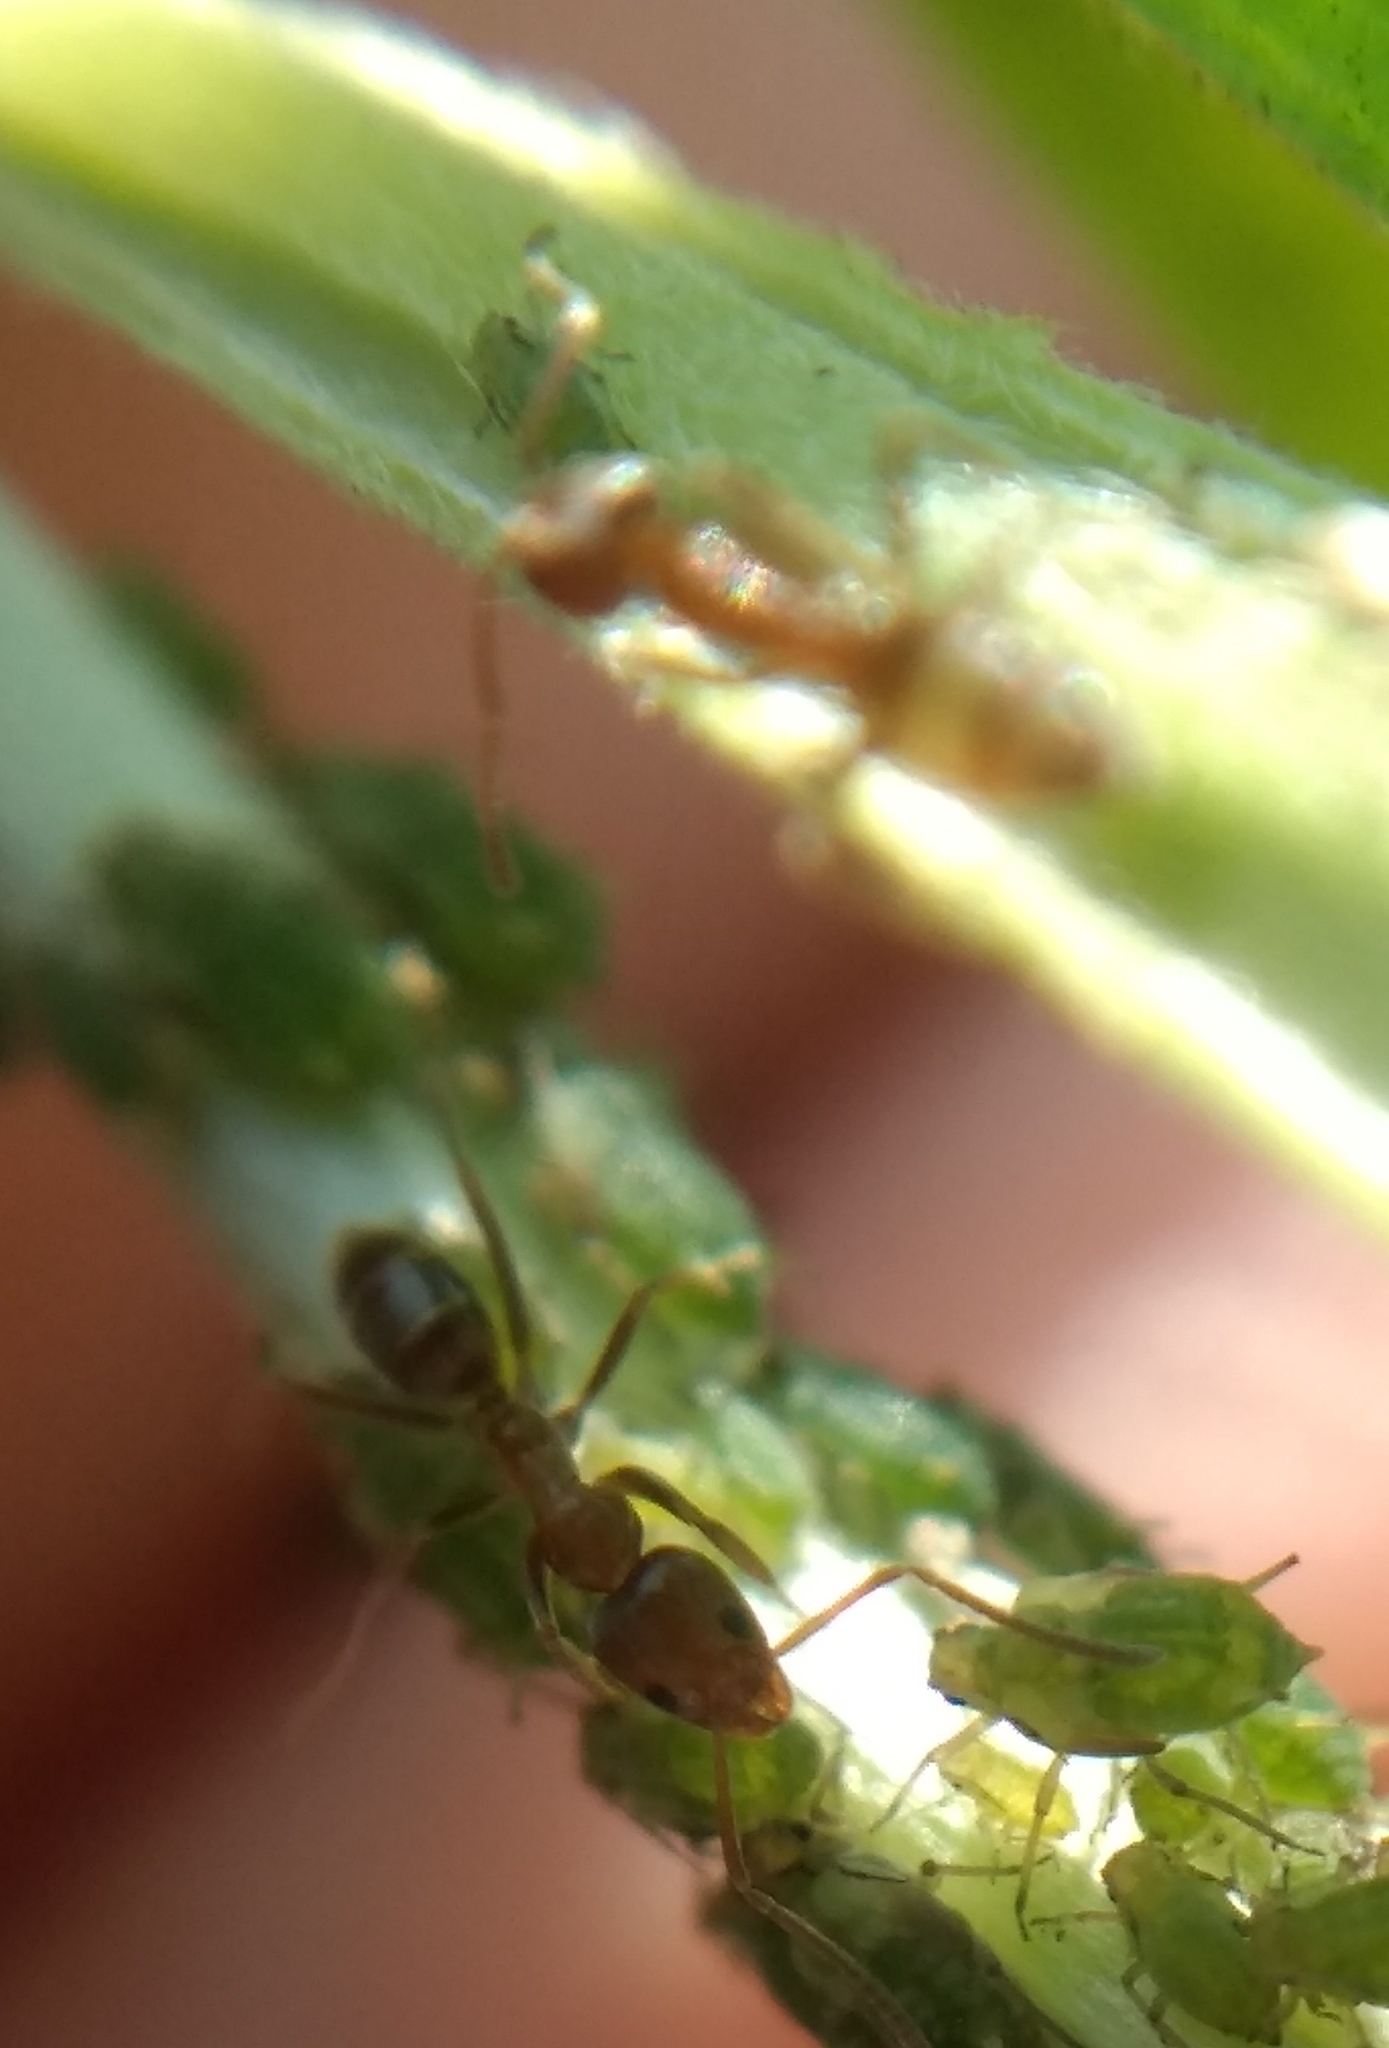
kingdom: Animalia
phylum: Arthropoda
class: Insecta
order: Hymenoptera
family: Formicidae
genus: Linepithema
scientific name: Linepithema humile
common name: Argentine ant
